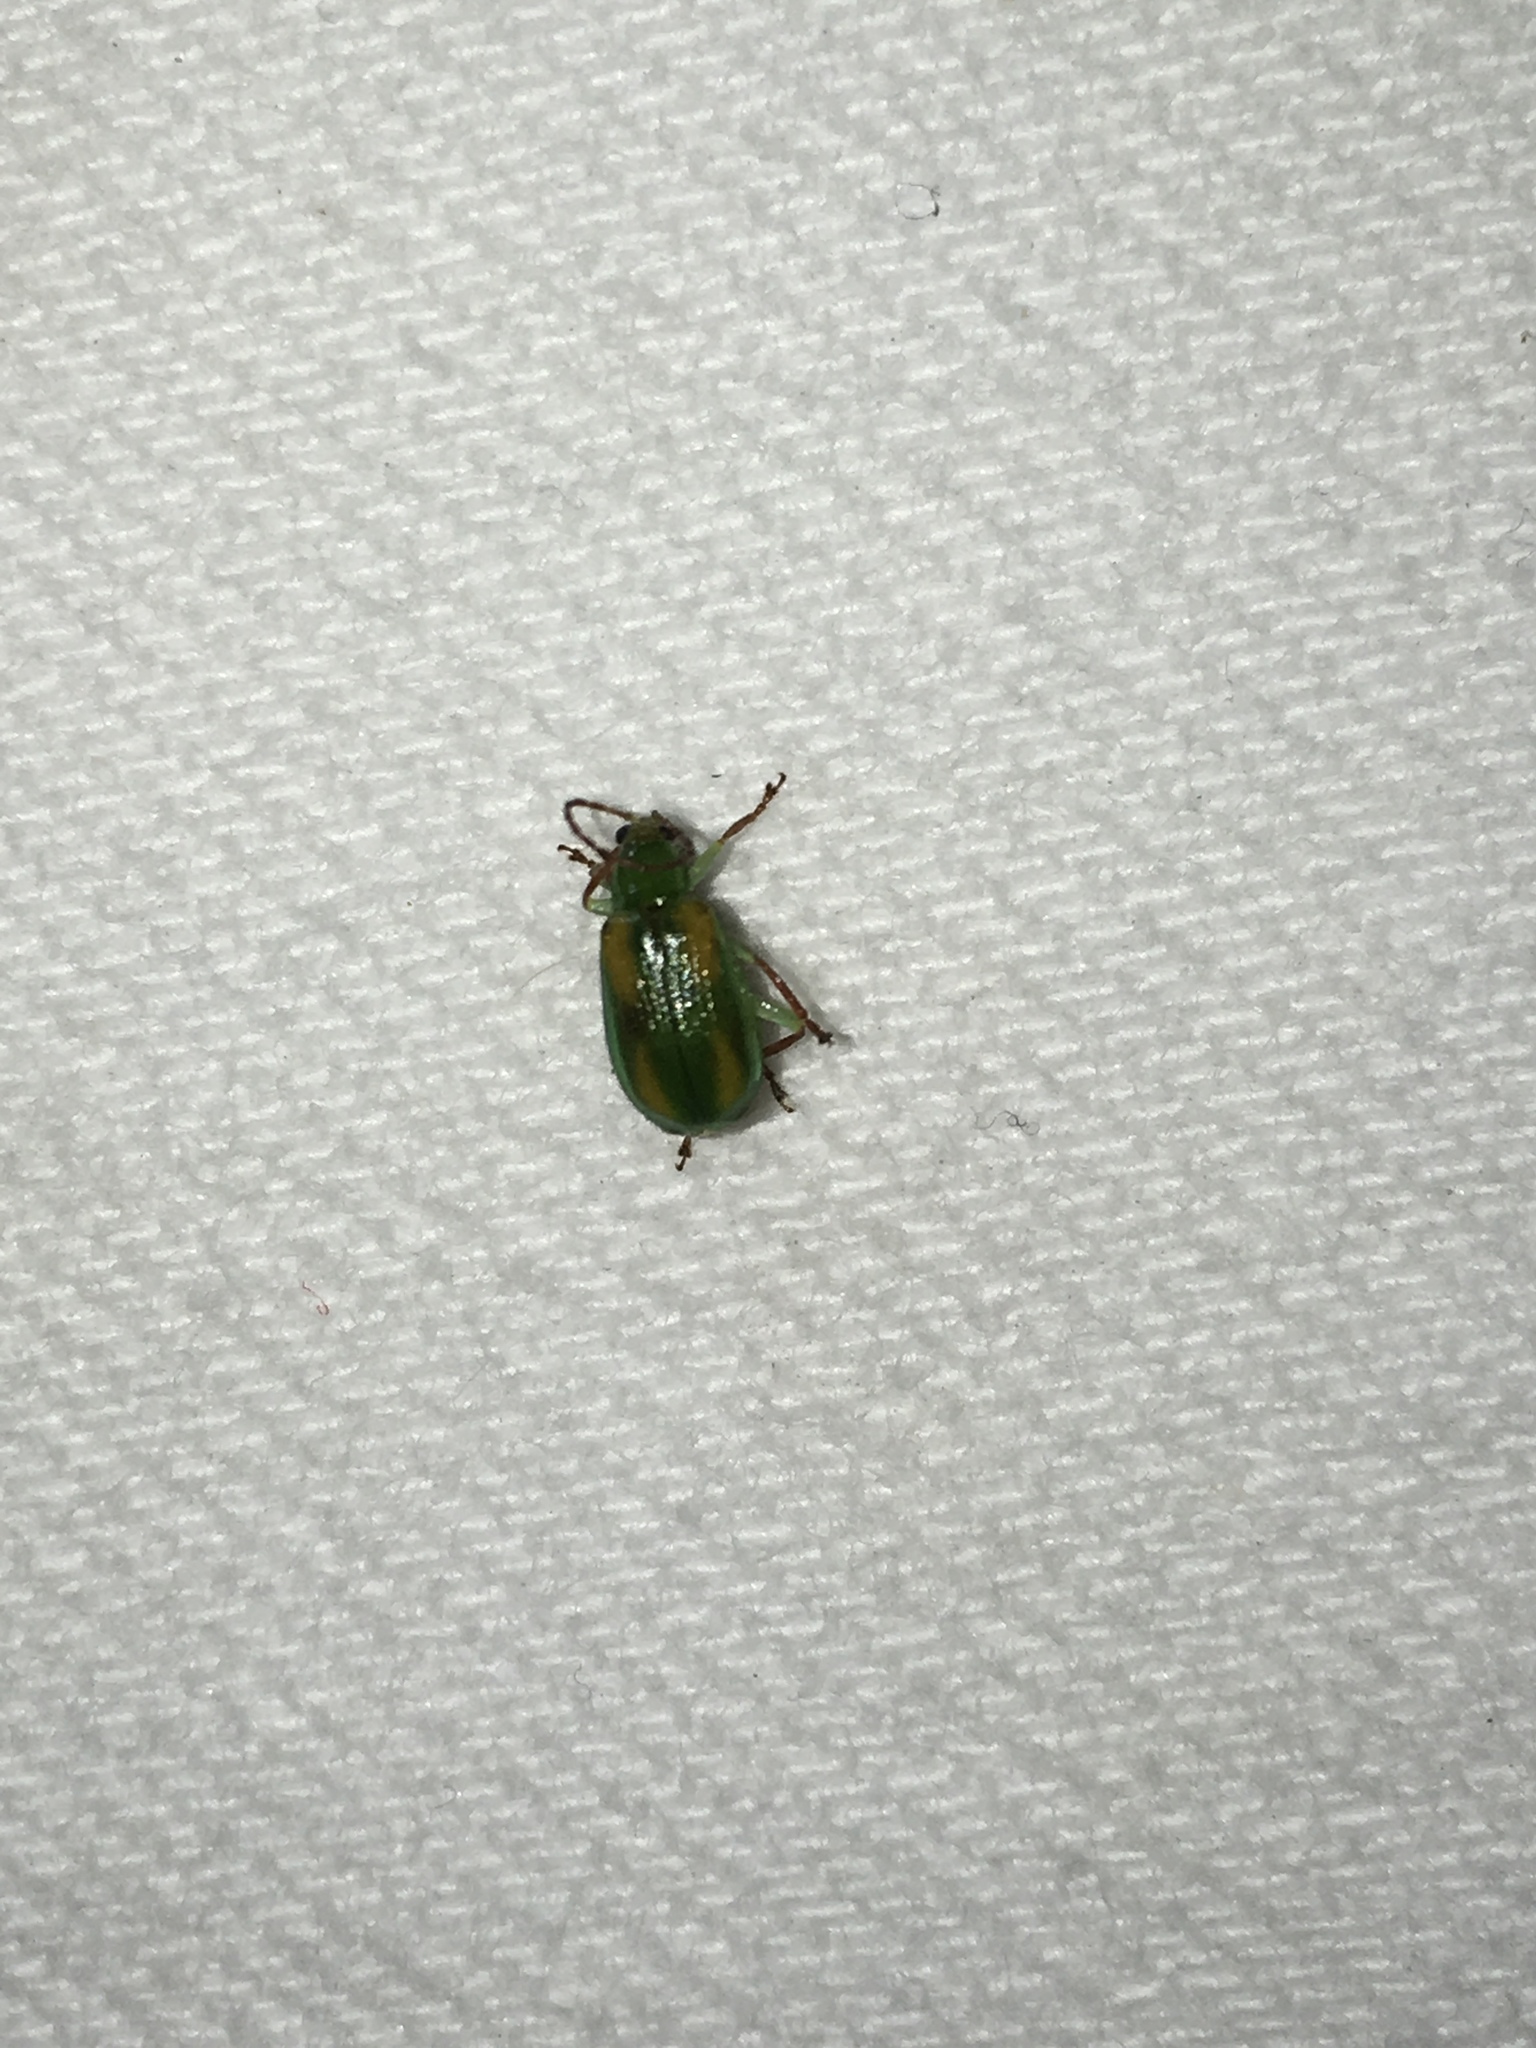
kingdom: Animalia
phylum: Arthropoda
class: Insecta
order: Coleoptera
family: Chrysomelidae
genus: Diabrotica
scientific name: Diabrotica porracea
